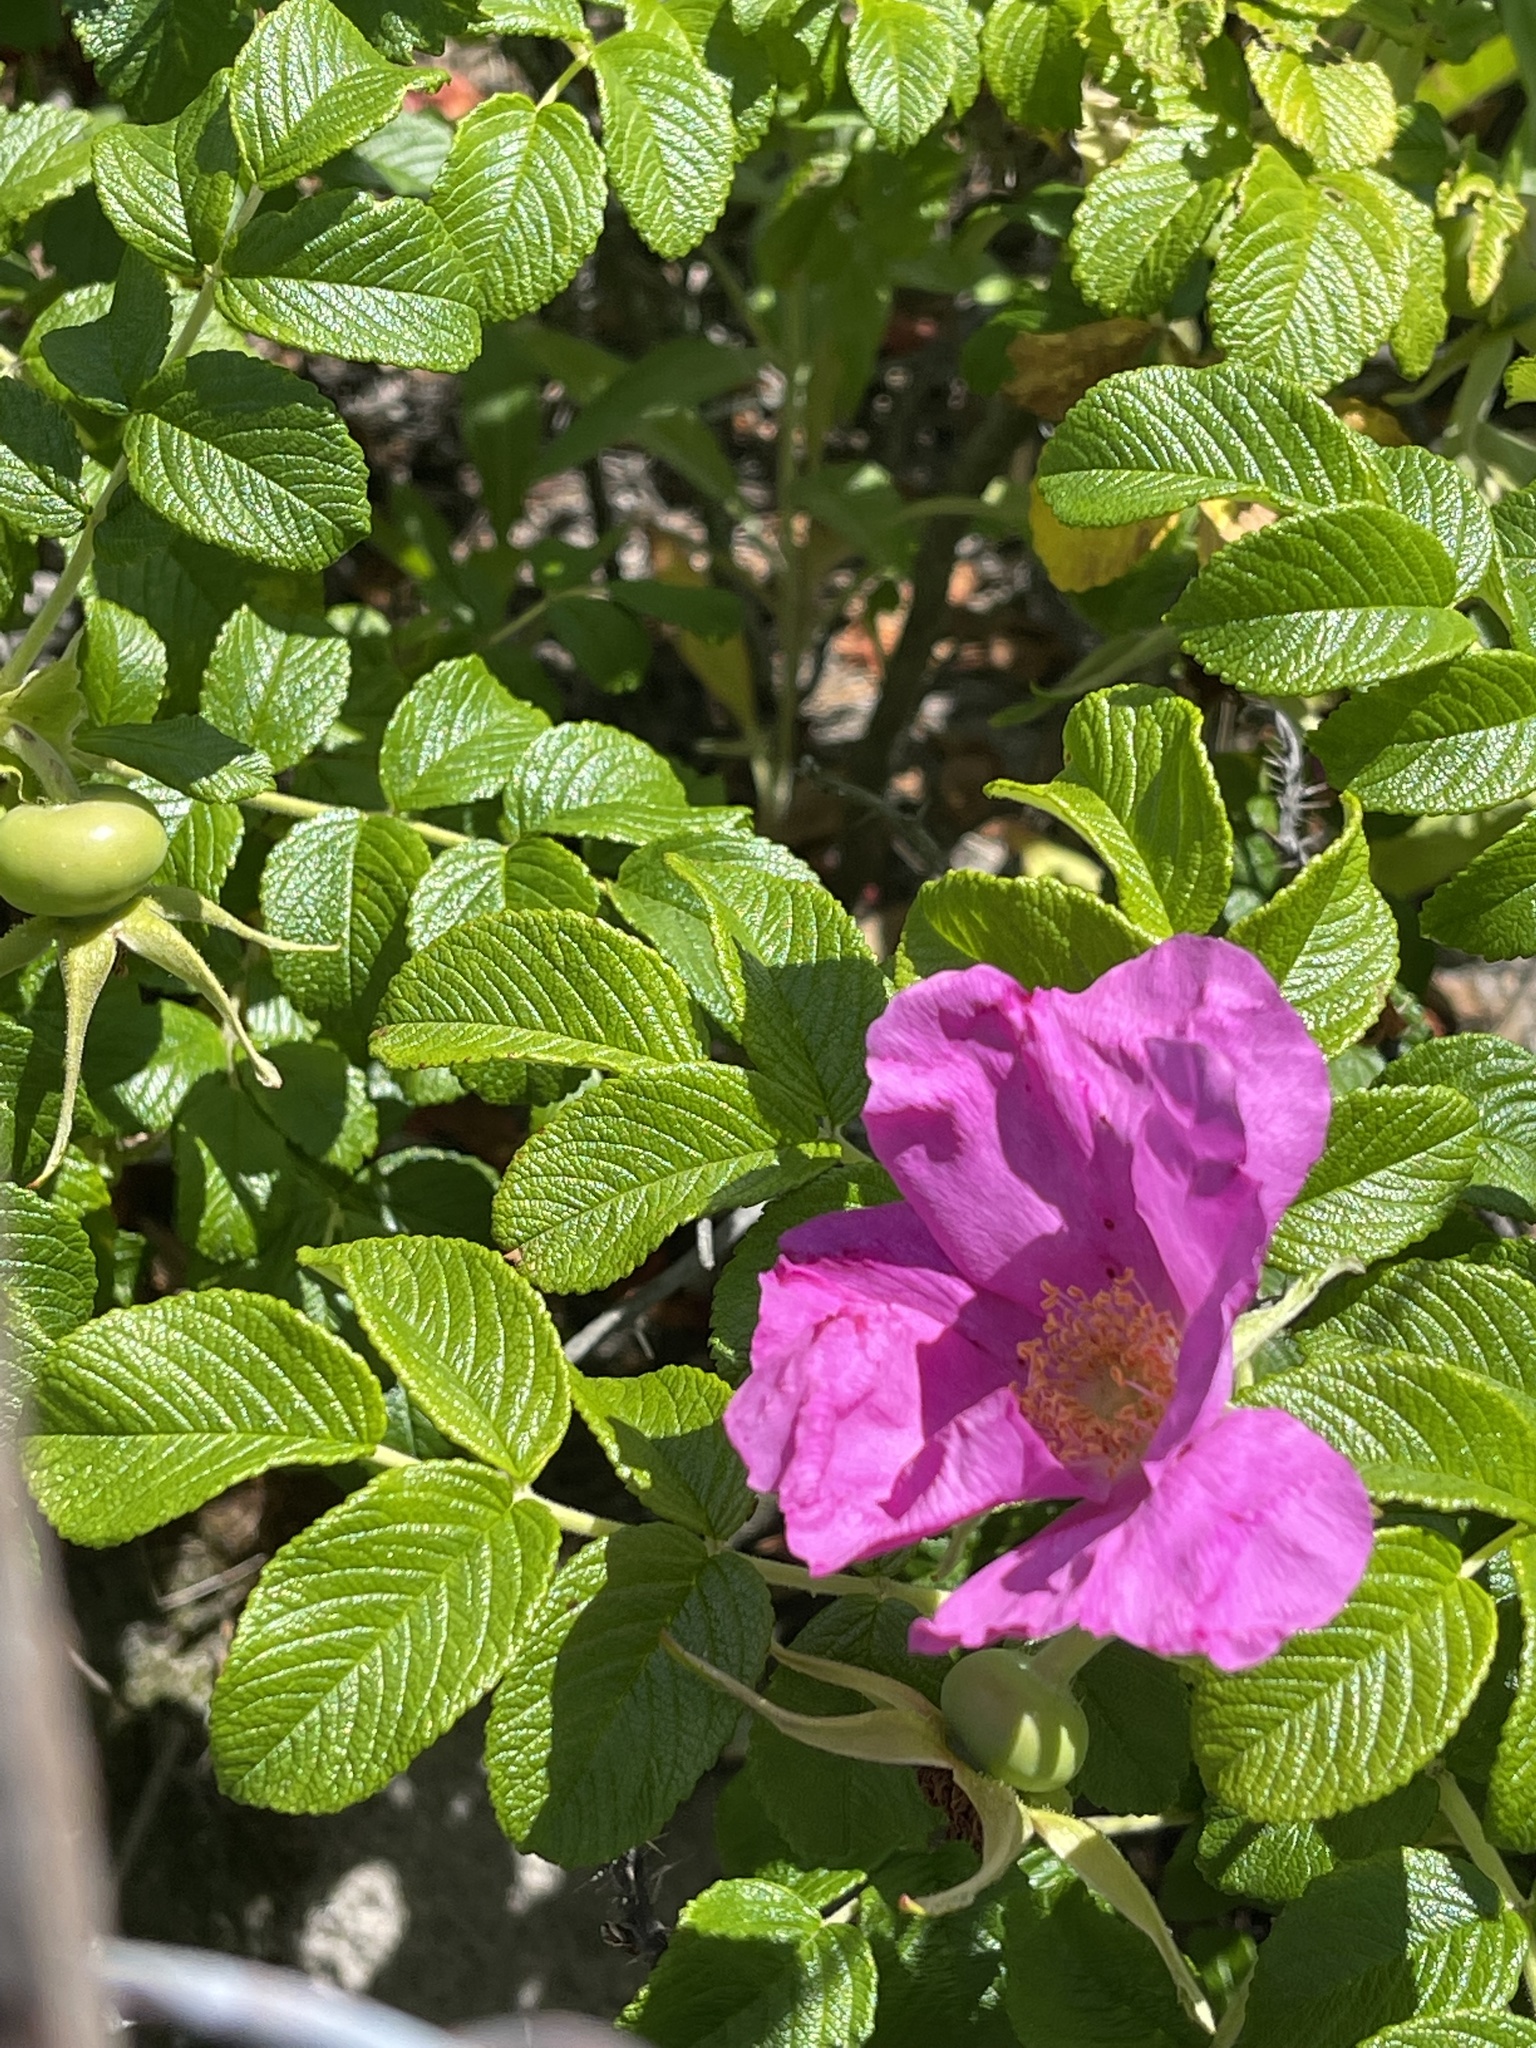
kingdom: Plantae
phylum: Tracheophyta
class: Magnoliopsida
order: Rosales
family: Rosaceae
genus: Rosa
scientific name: Rosa rugosa
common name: Japanese rose
